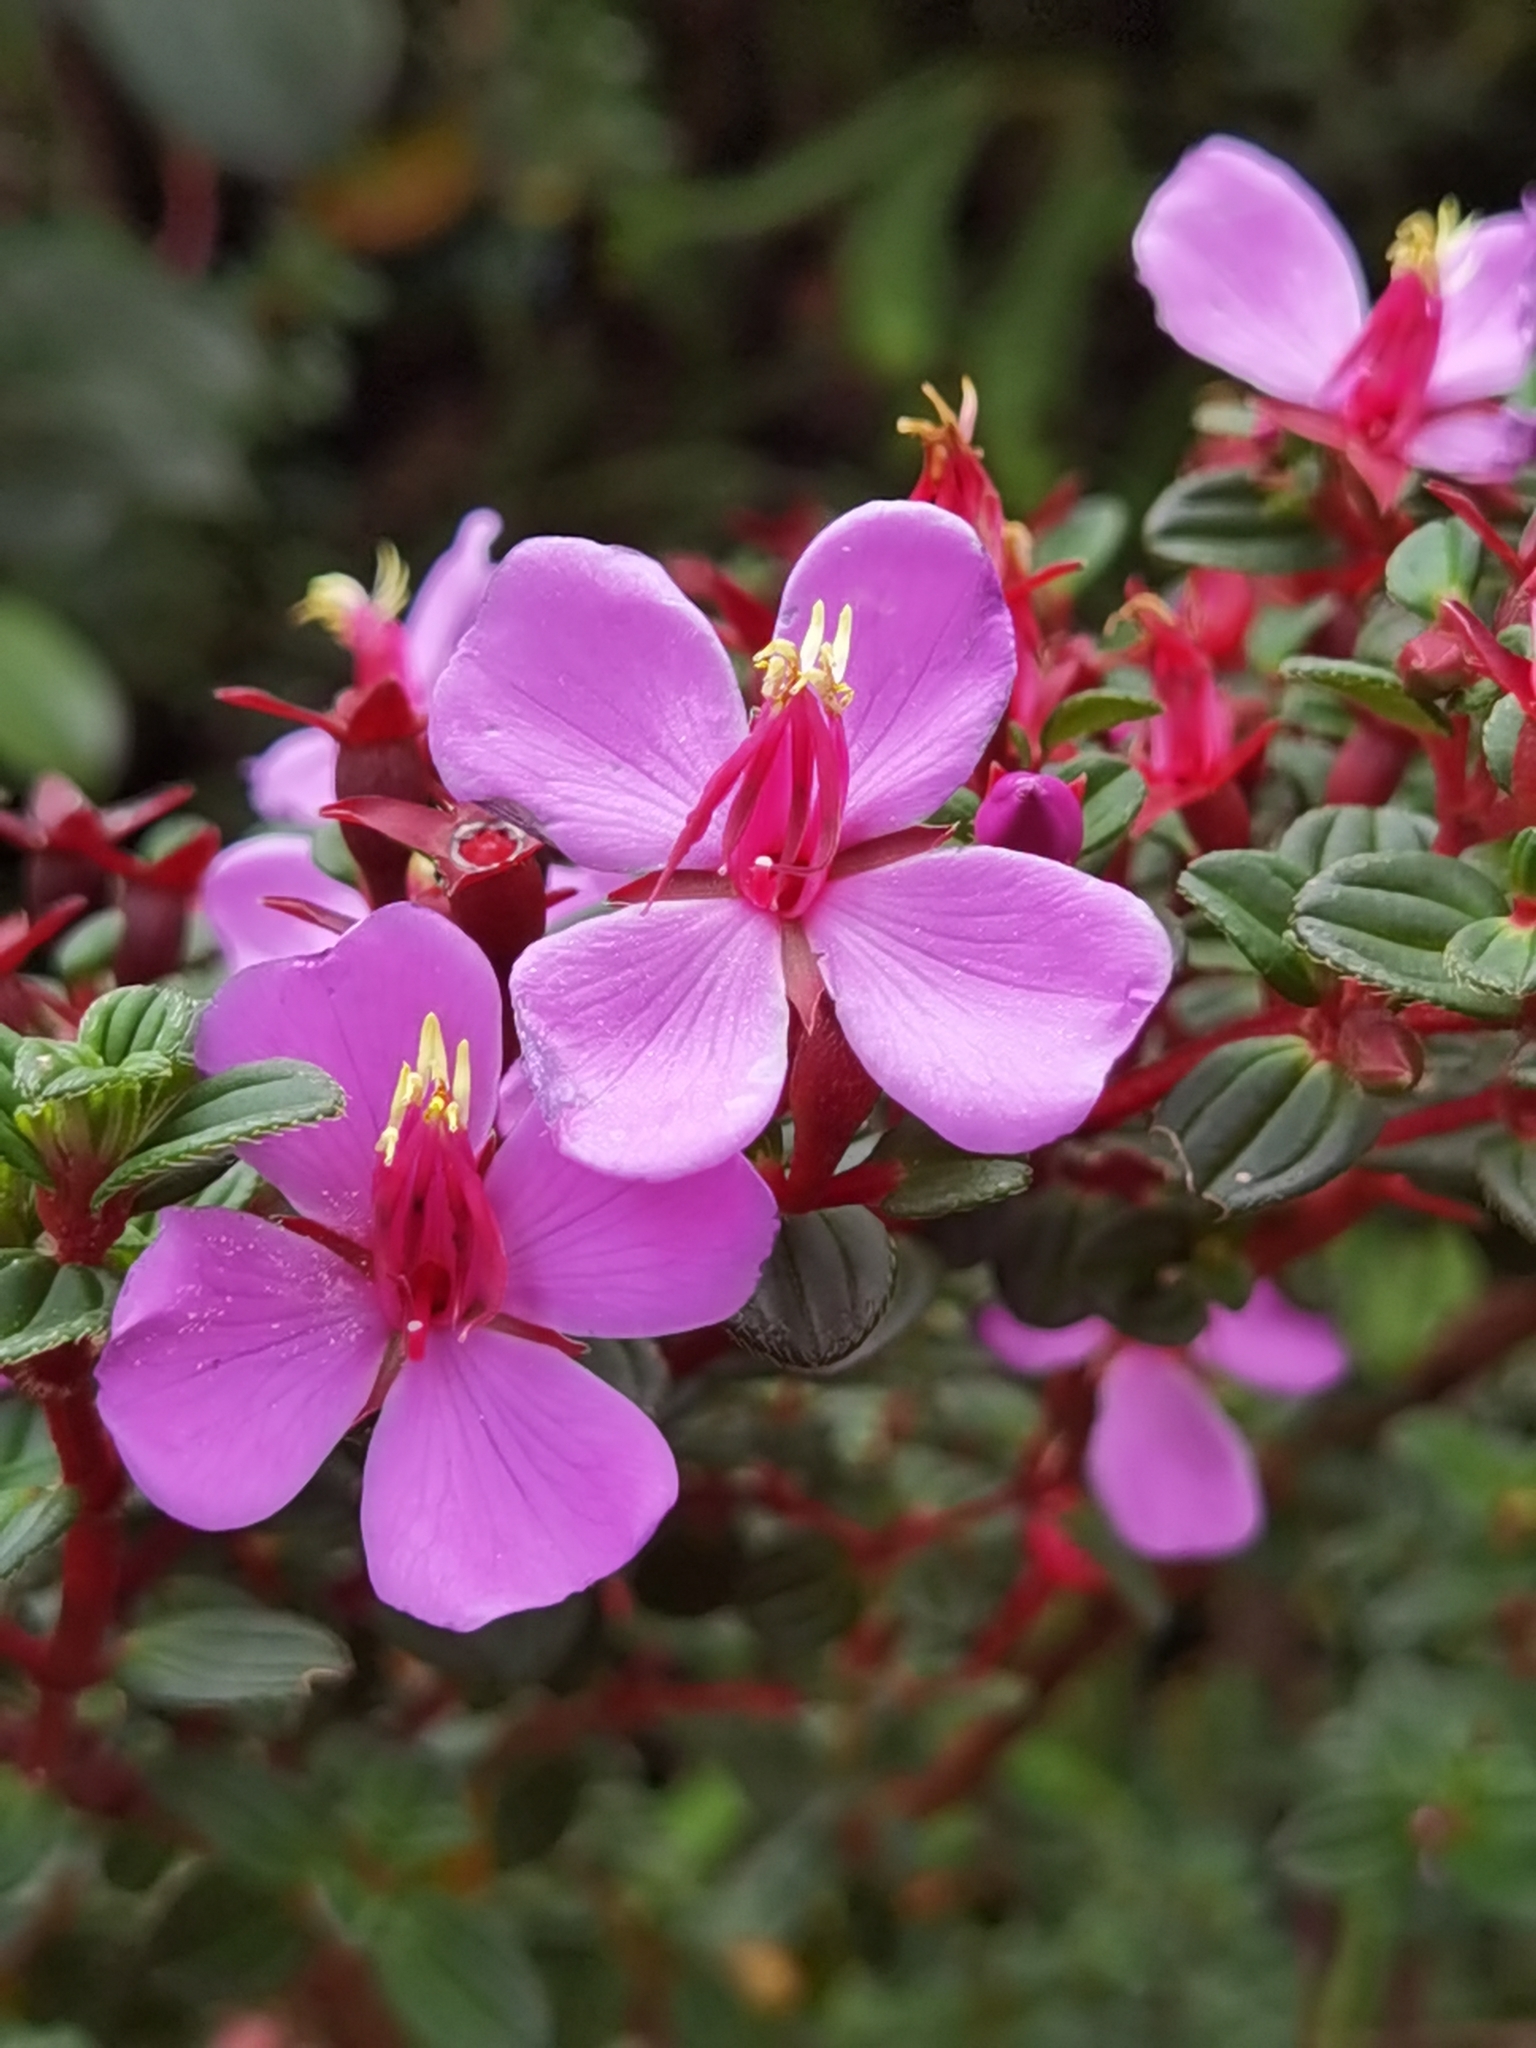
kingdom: Plantae
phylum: Tracheophyta
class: Magnoliopsida
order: Myrtales
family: Melastomataceae
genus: Monochaetum
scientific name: Monochaetum vulcanicum
